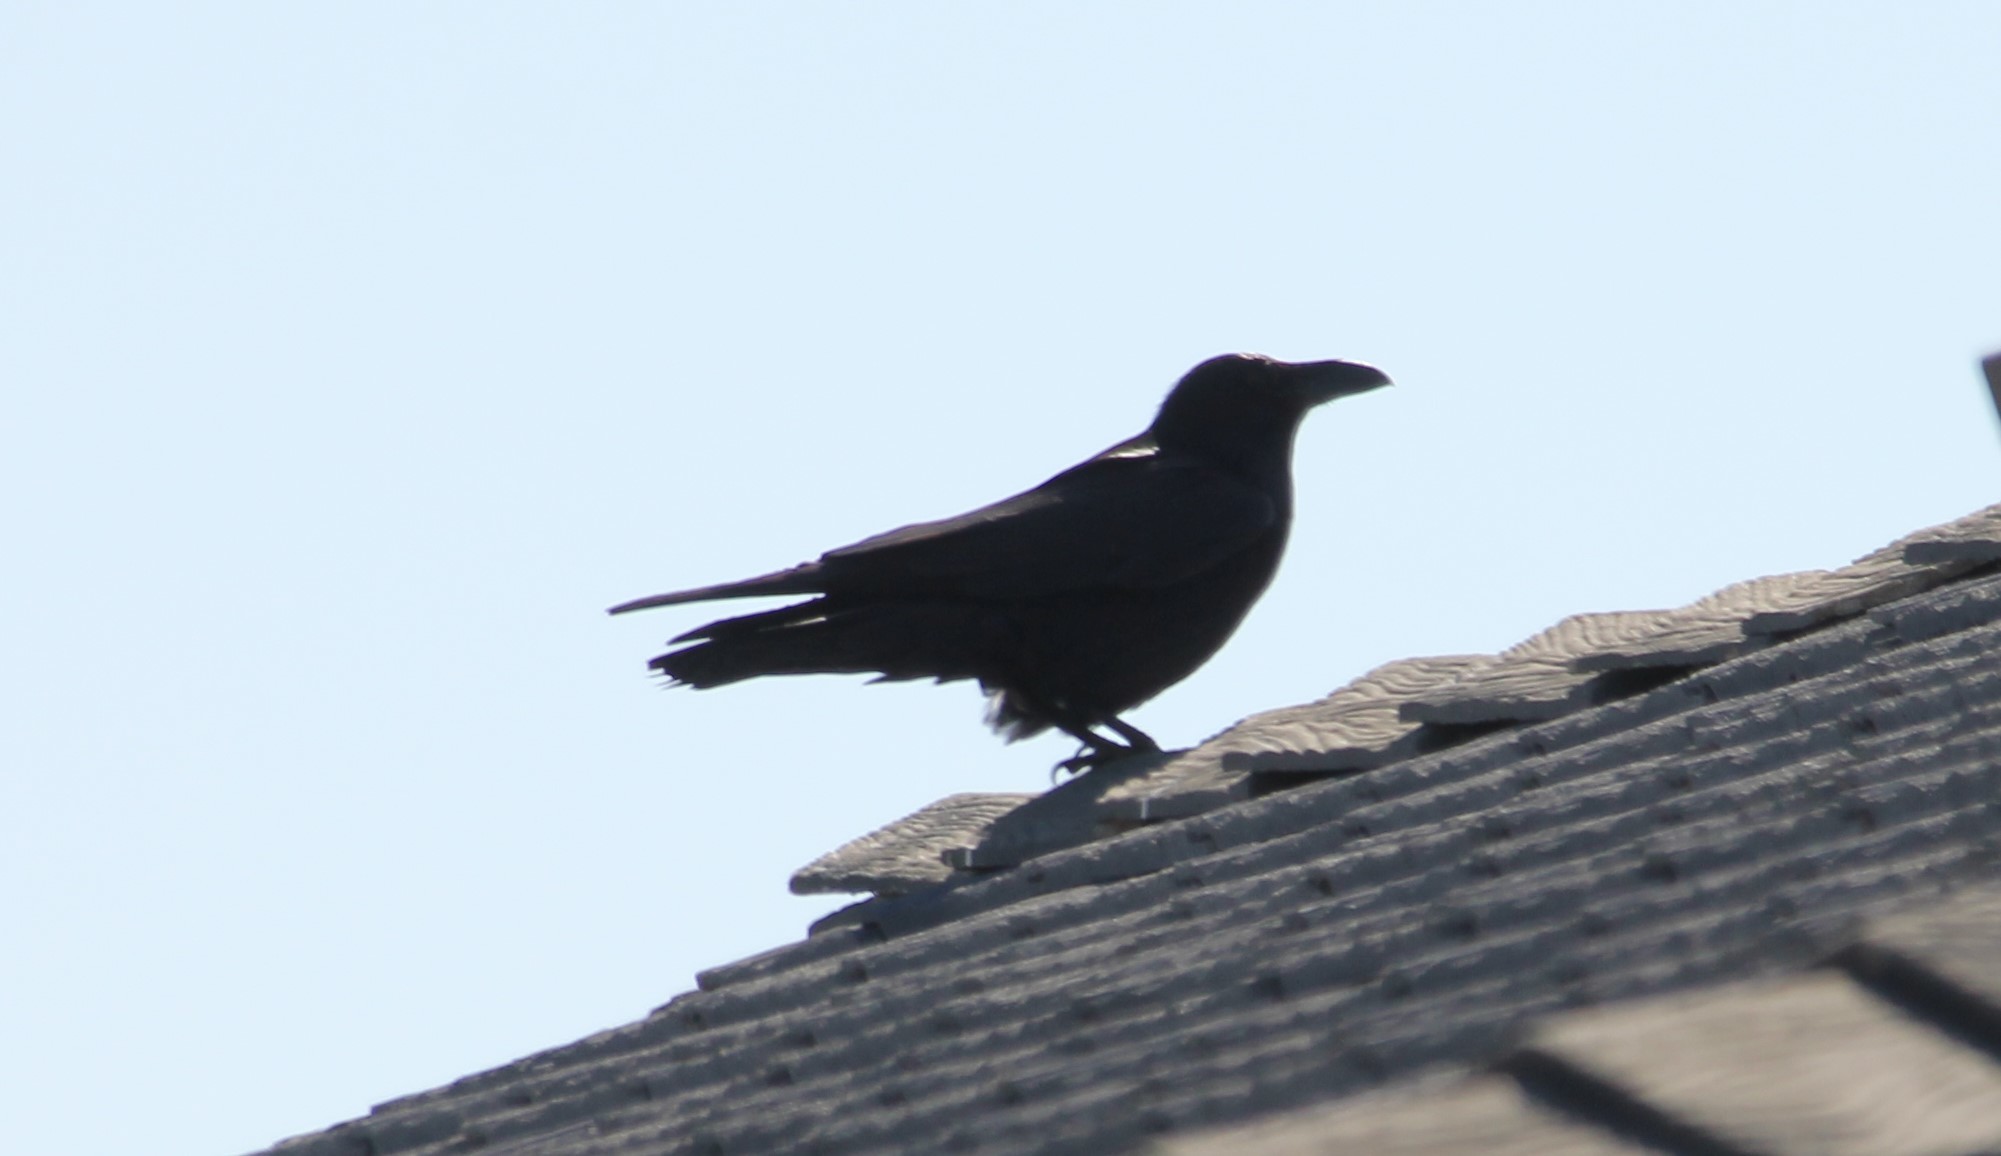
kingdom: Animalia
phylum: Chordata
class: Aves
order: Passeriformes
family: Corvidae
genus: Corvus
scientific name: Corvus corax
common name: Common raven
